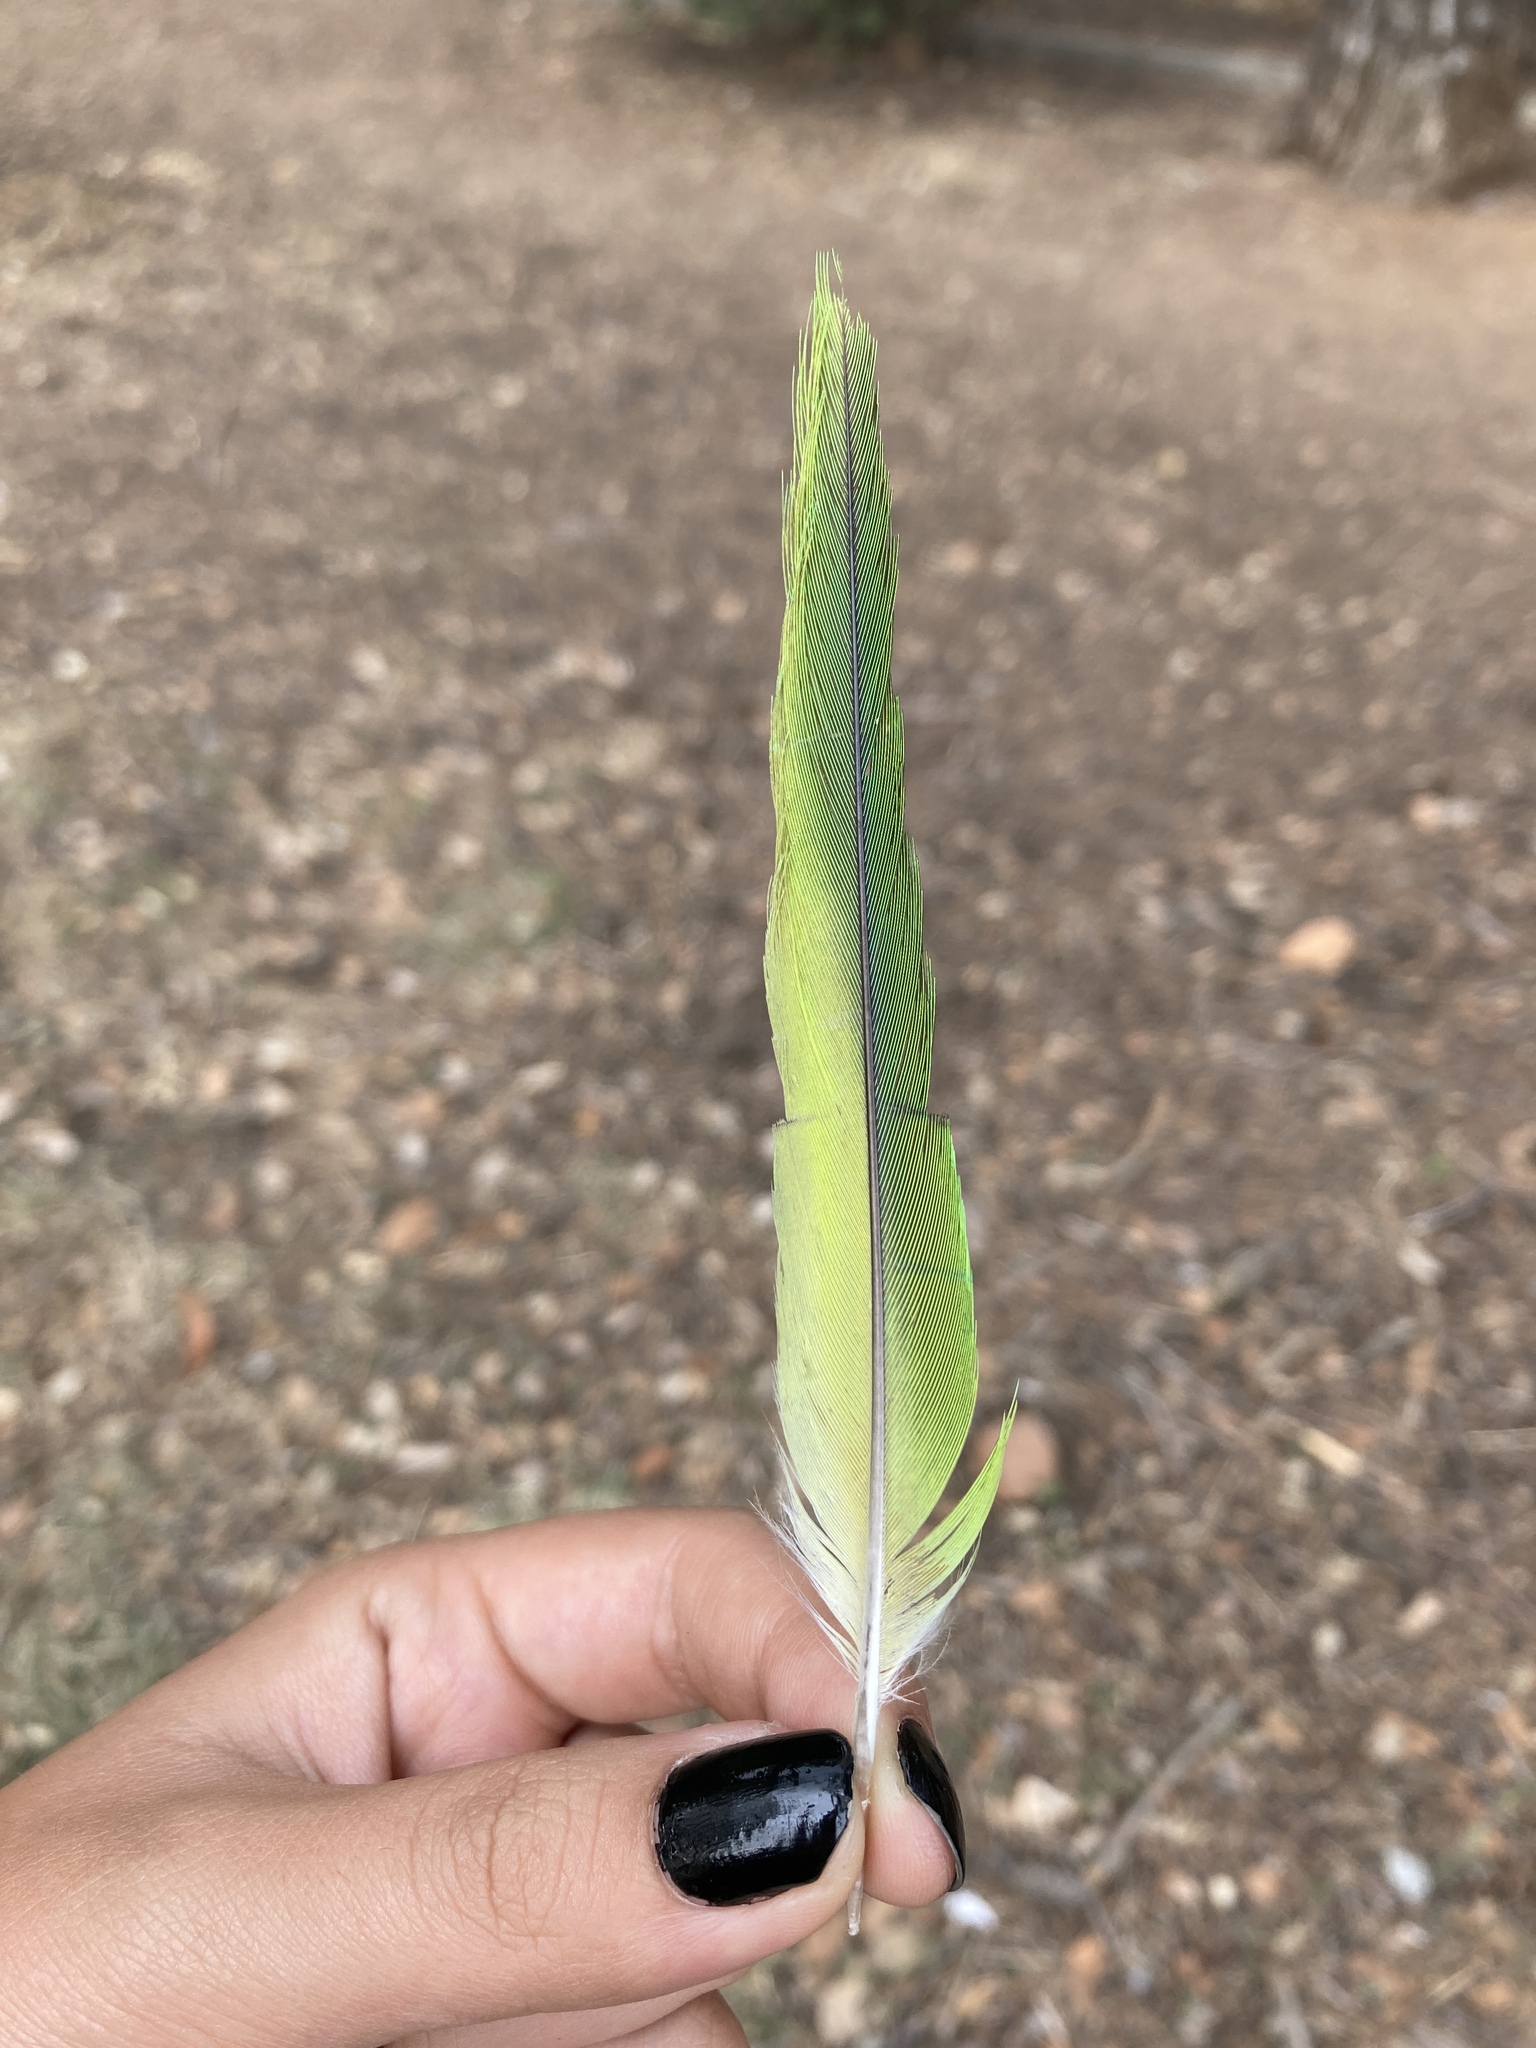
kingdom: Animalia
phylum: Chordata
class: Aves
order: Psittaciformes
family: Psittacidae
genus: Myiopsitta
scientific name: Myiopsitta monachus
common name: Monk parakeet
